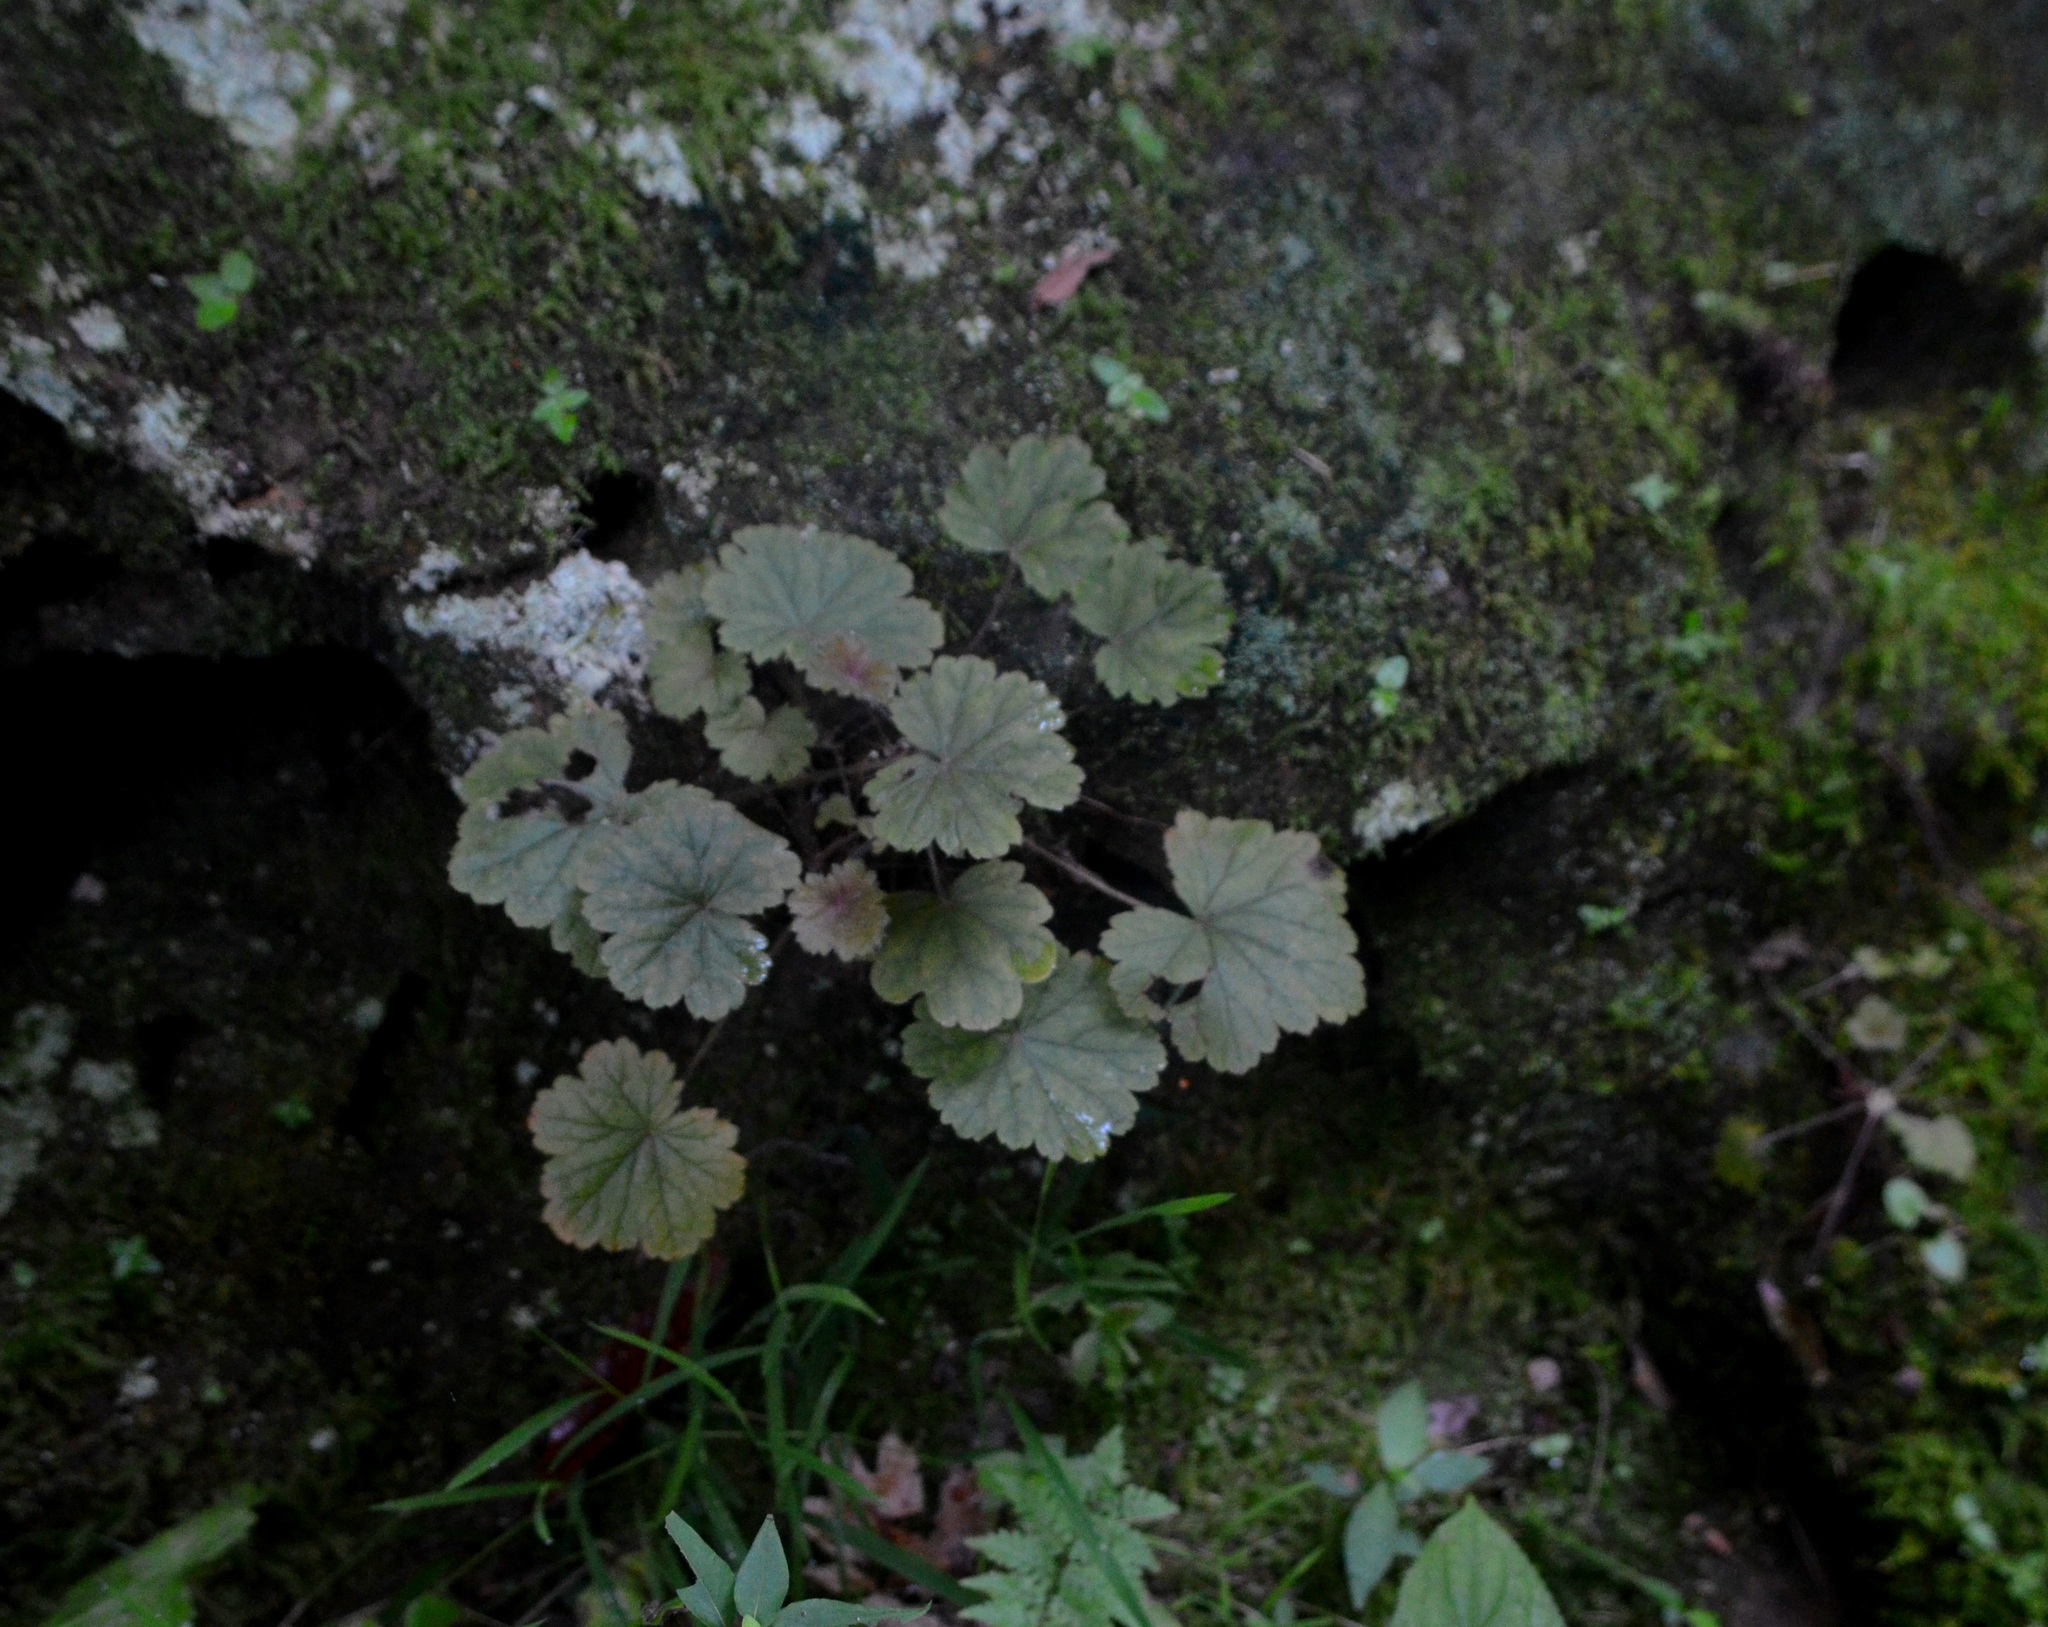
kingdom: Plantae
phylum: Tracheophyta
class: Magnoliopsida
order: Saxifragales
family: Saxifragaceae
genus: Heuchera
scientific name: Heuchera missouriensis
